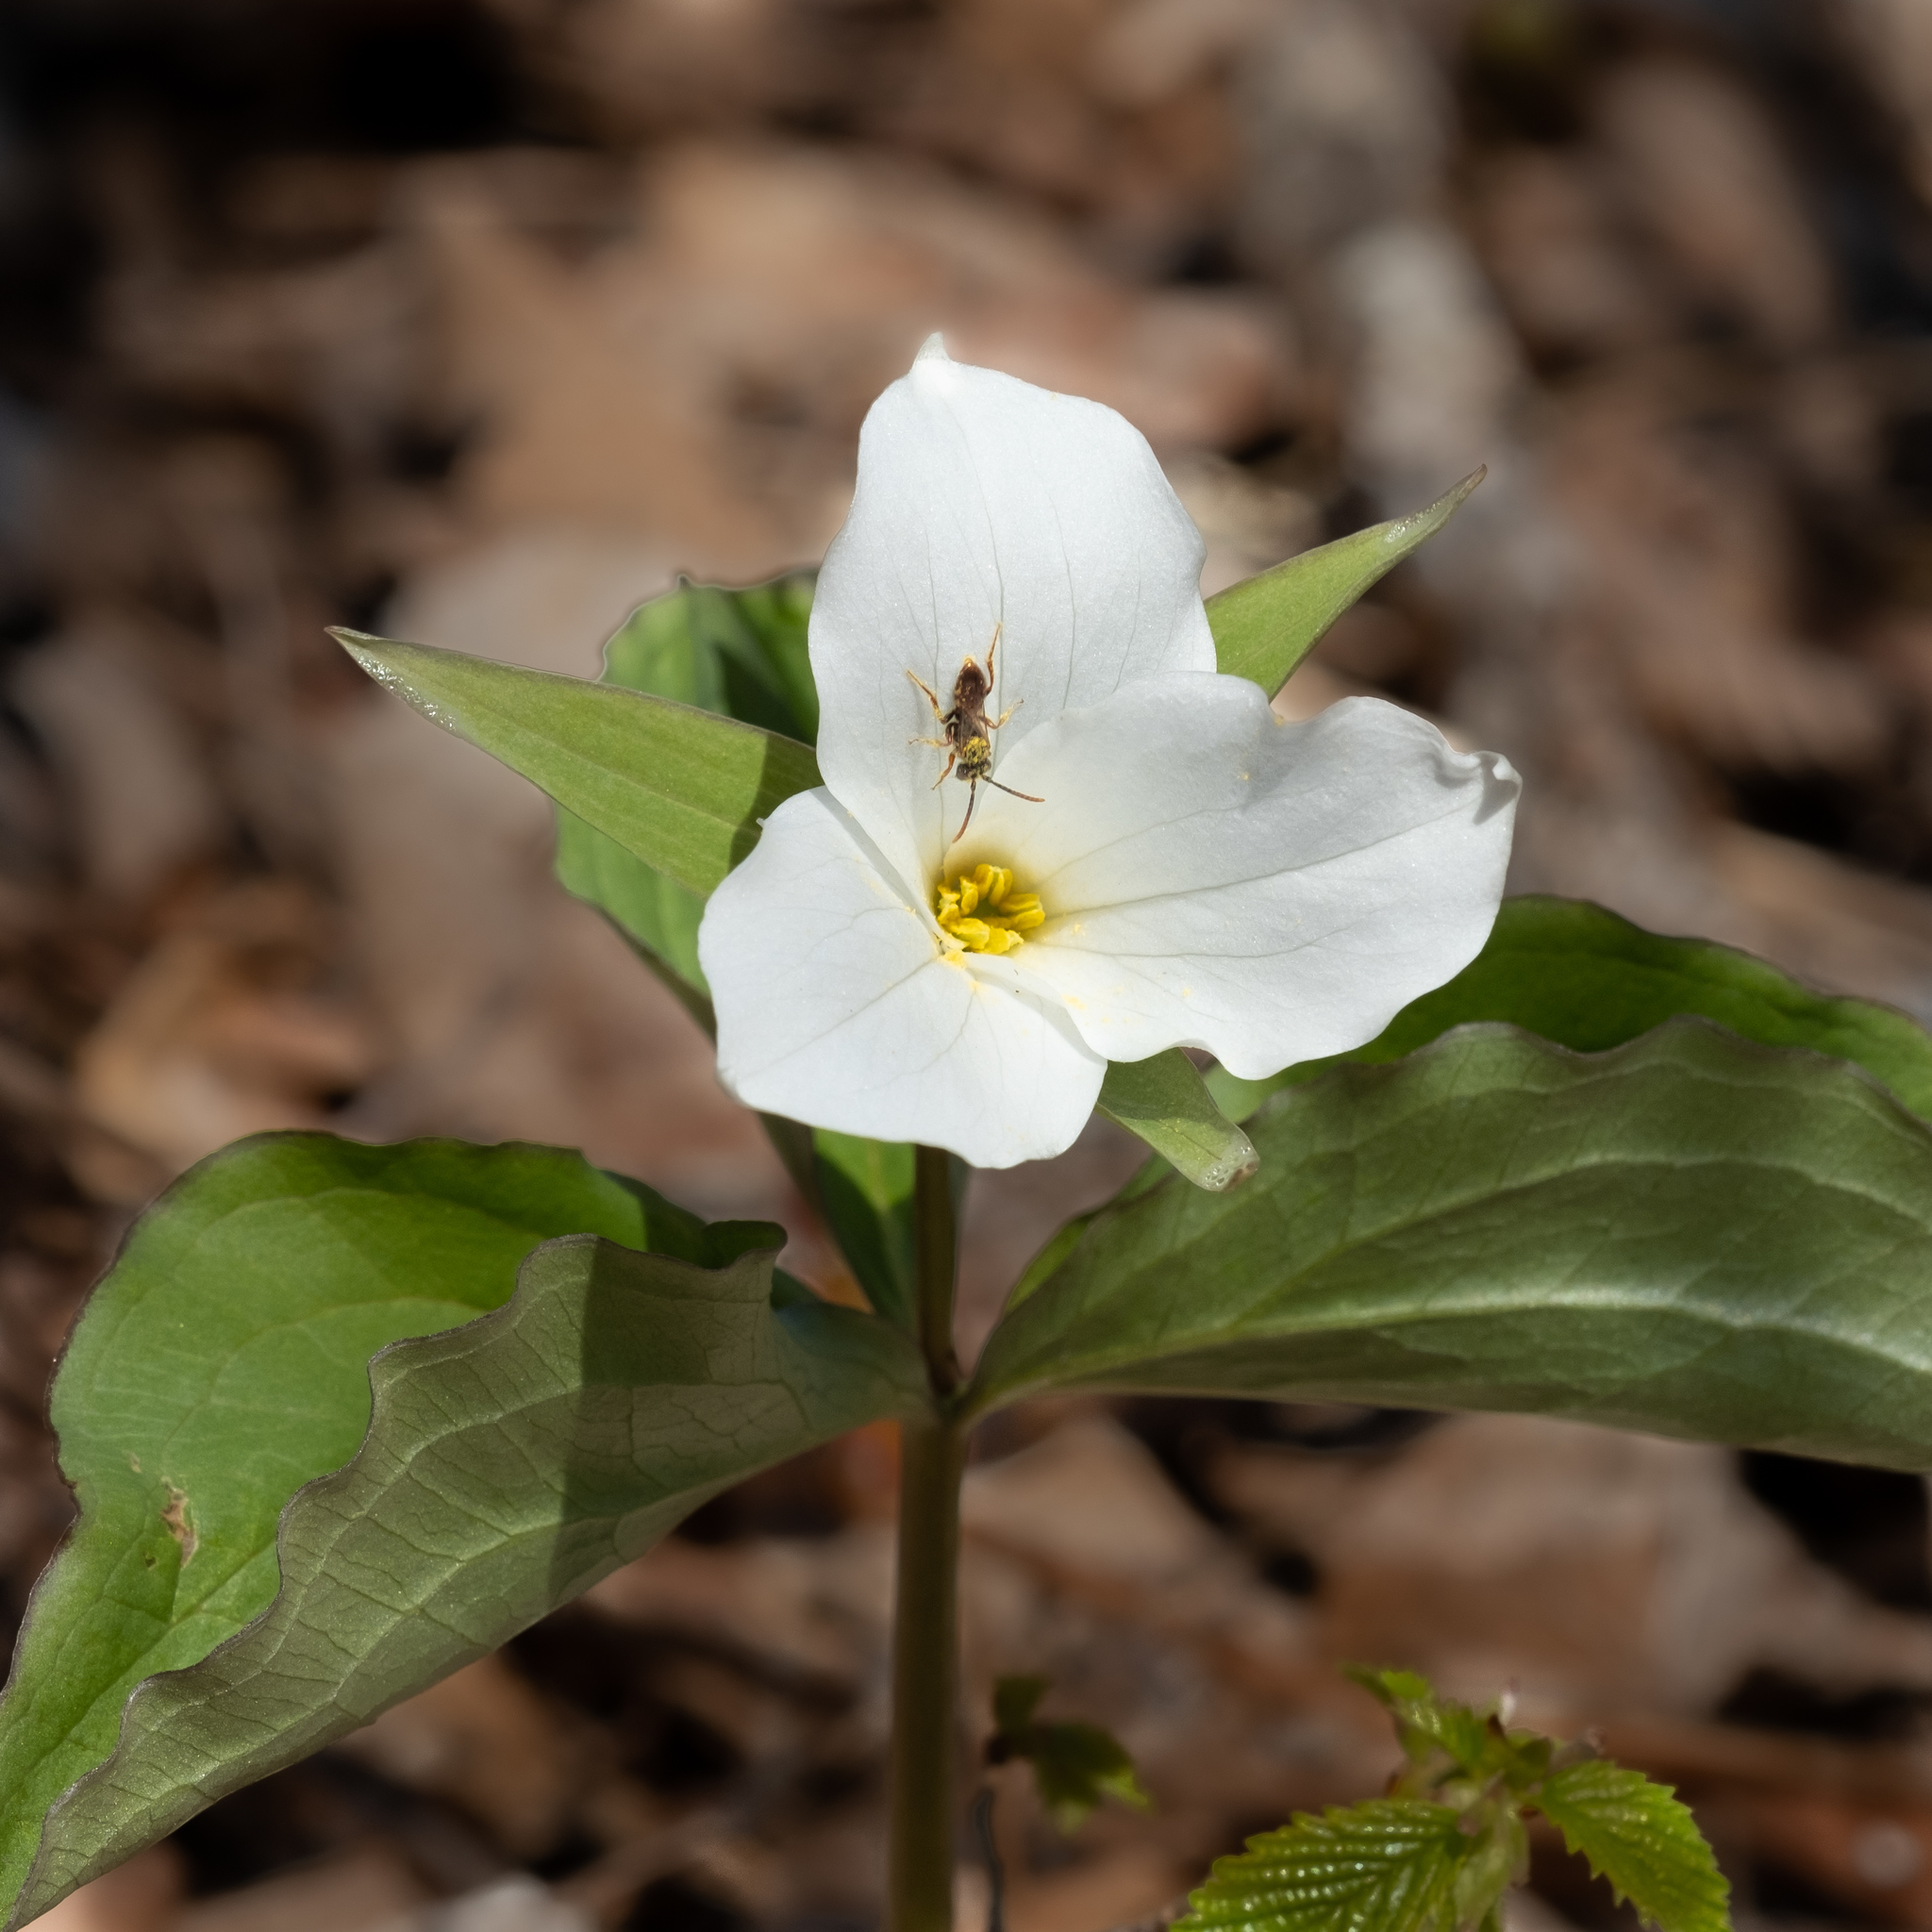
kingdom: Plantae
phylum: Tracheophyta
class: Liliopsida
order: Liliales
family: Melanthiaceae
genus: Trillium
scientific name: Trillium grandiflorum
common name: Great white trillium
